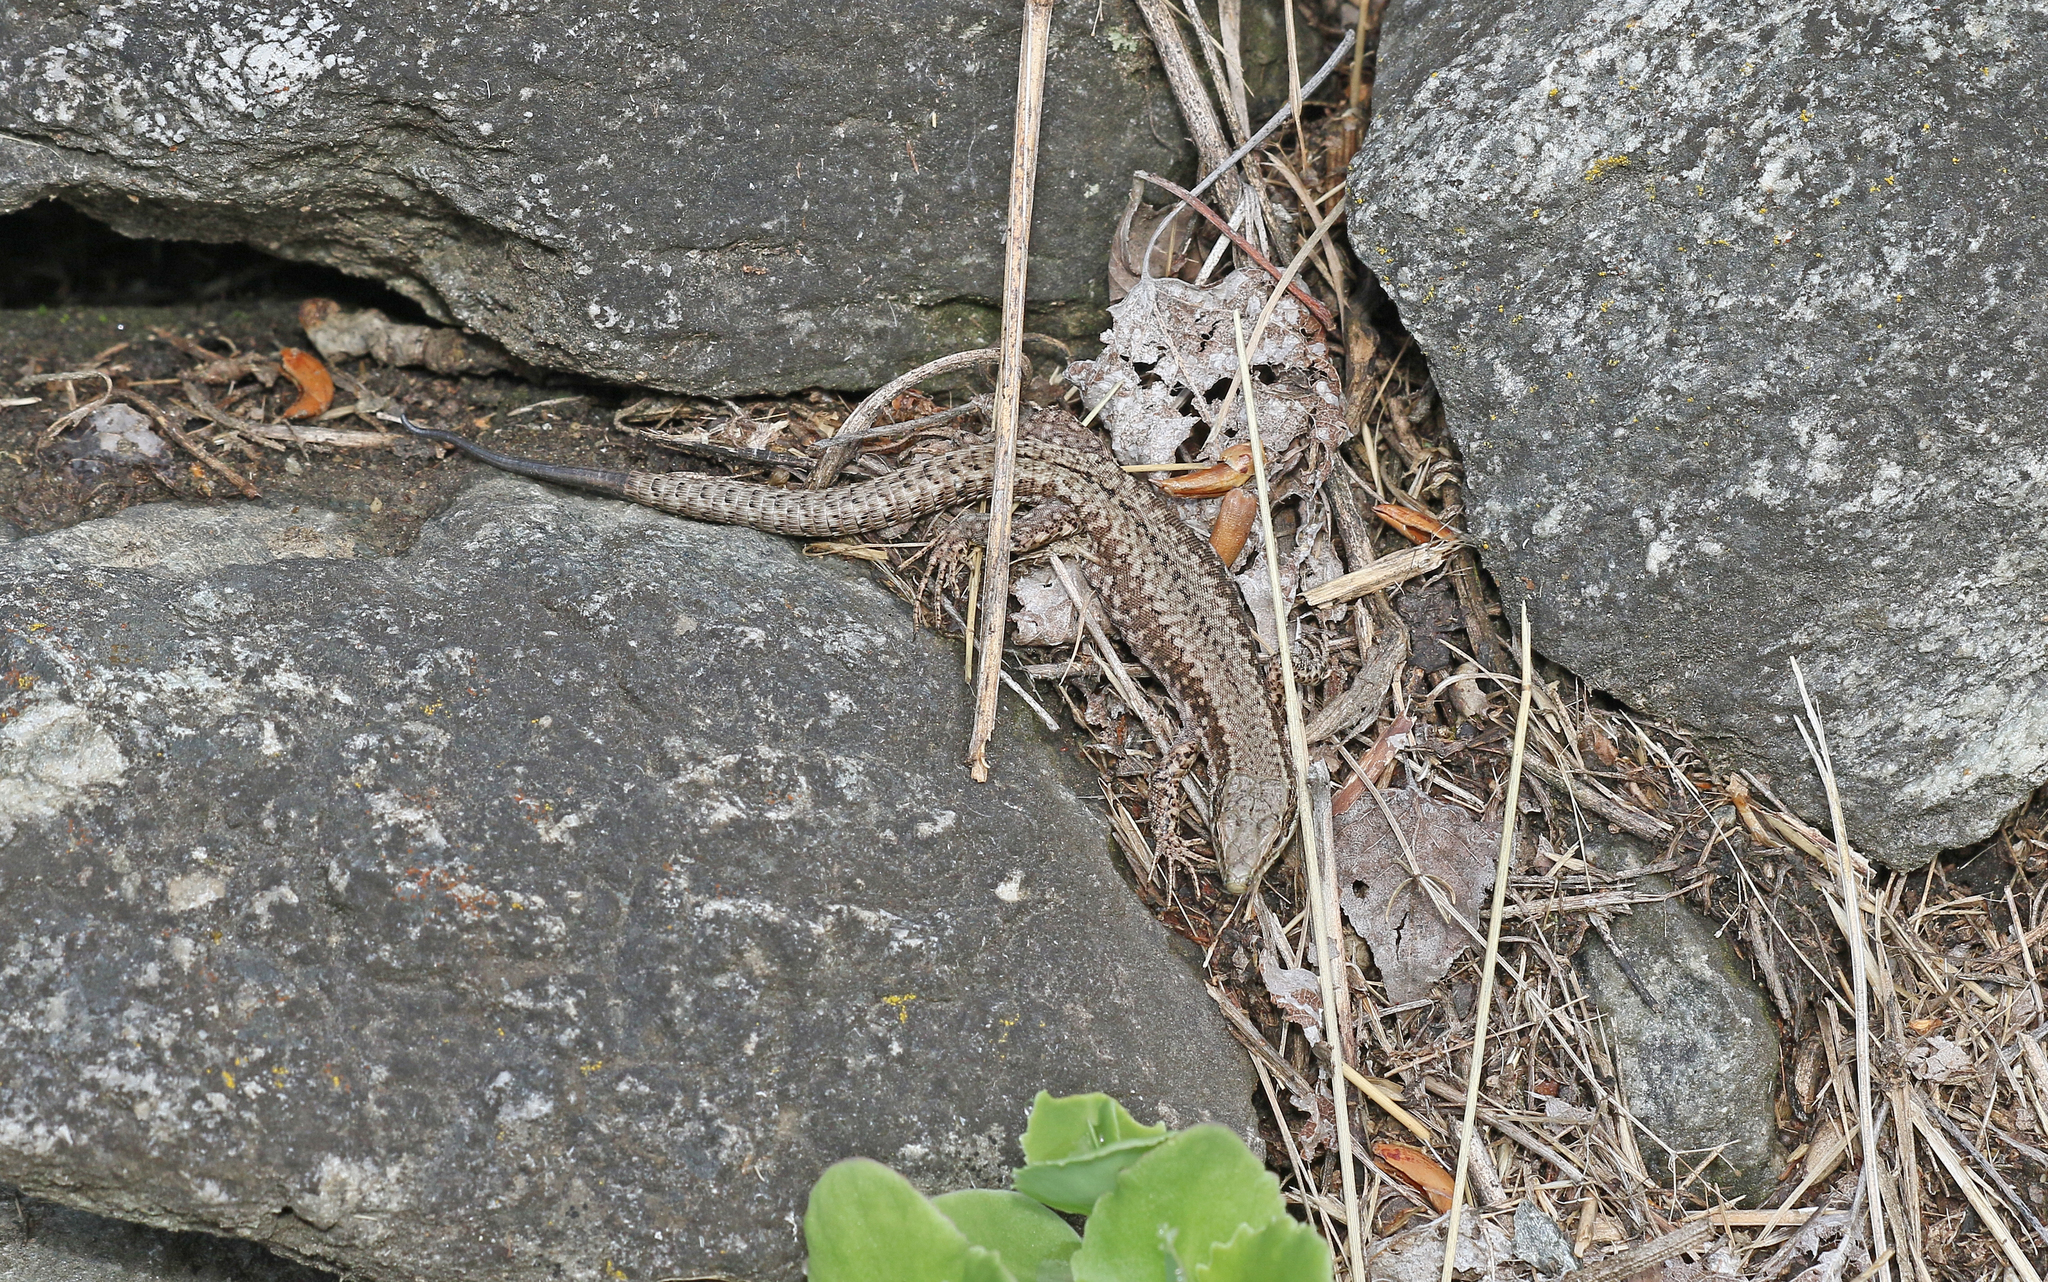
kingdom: Animalia
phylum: Chordata
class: Squamata
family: Lacertidae
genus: Podarcis
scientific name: Podarcis muralis
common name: Common wall lizard
